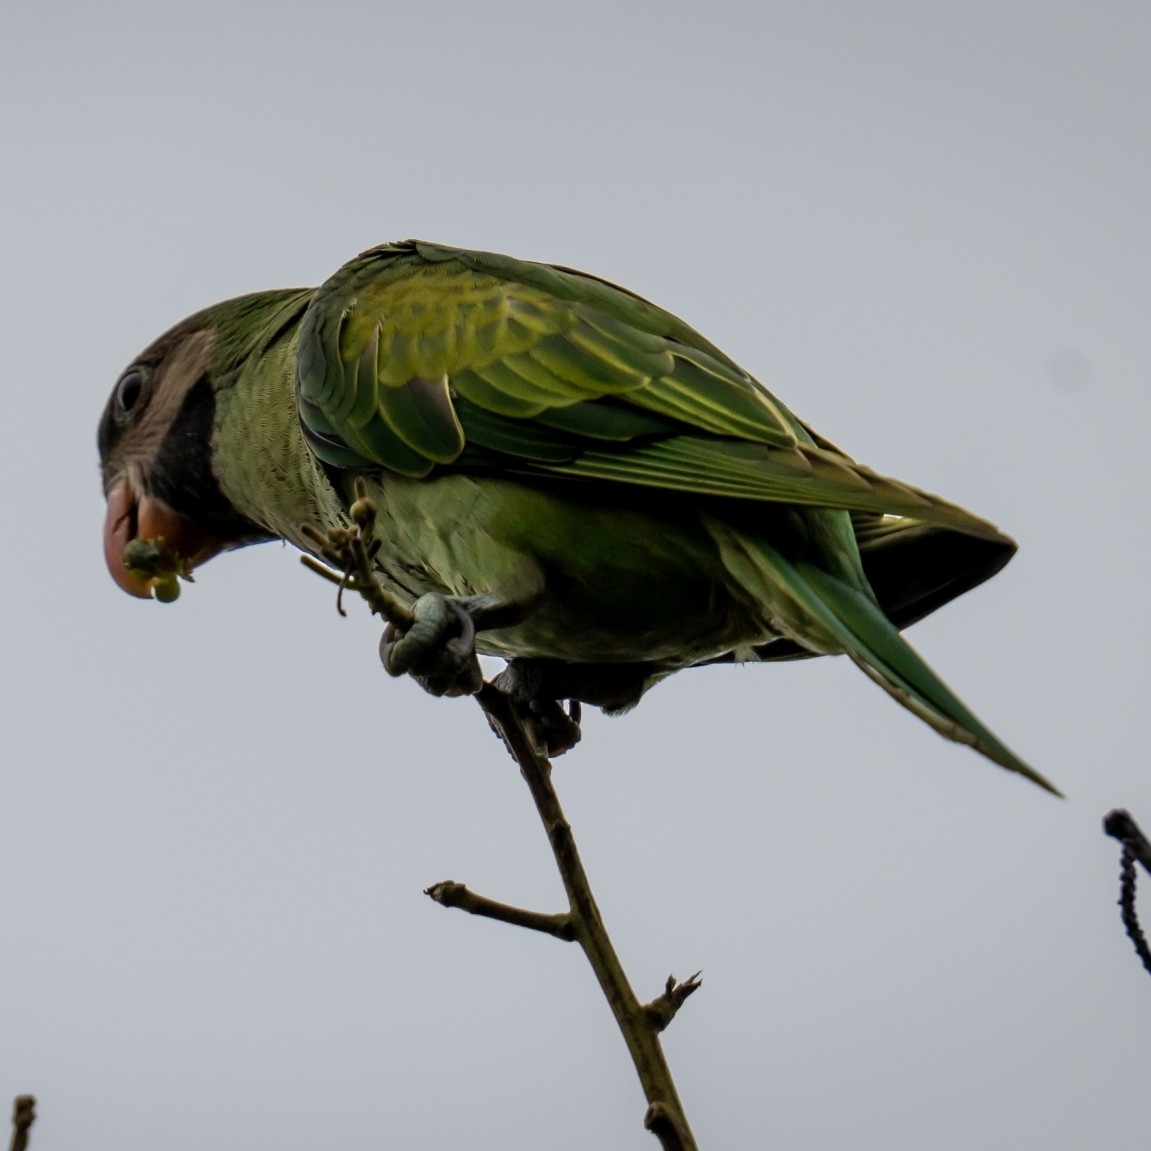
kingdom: Animalia
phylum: Chordata
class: Aves
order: Psittaciformes
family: Psittacidae
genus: Psittacula
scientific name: Psittacula alexandri
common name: Red-breasted parakeet
